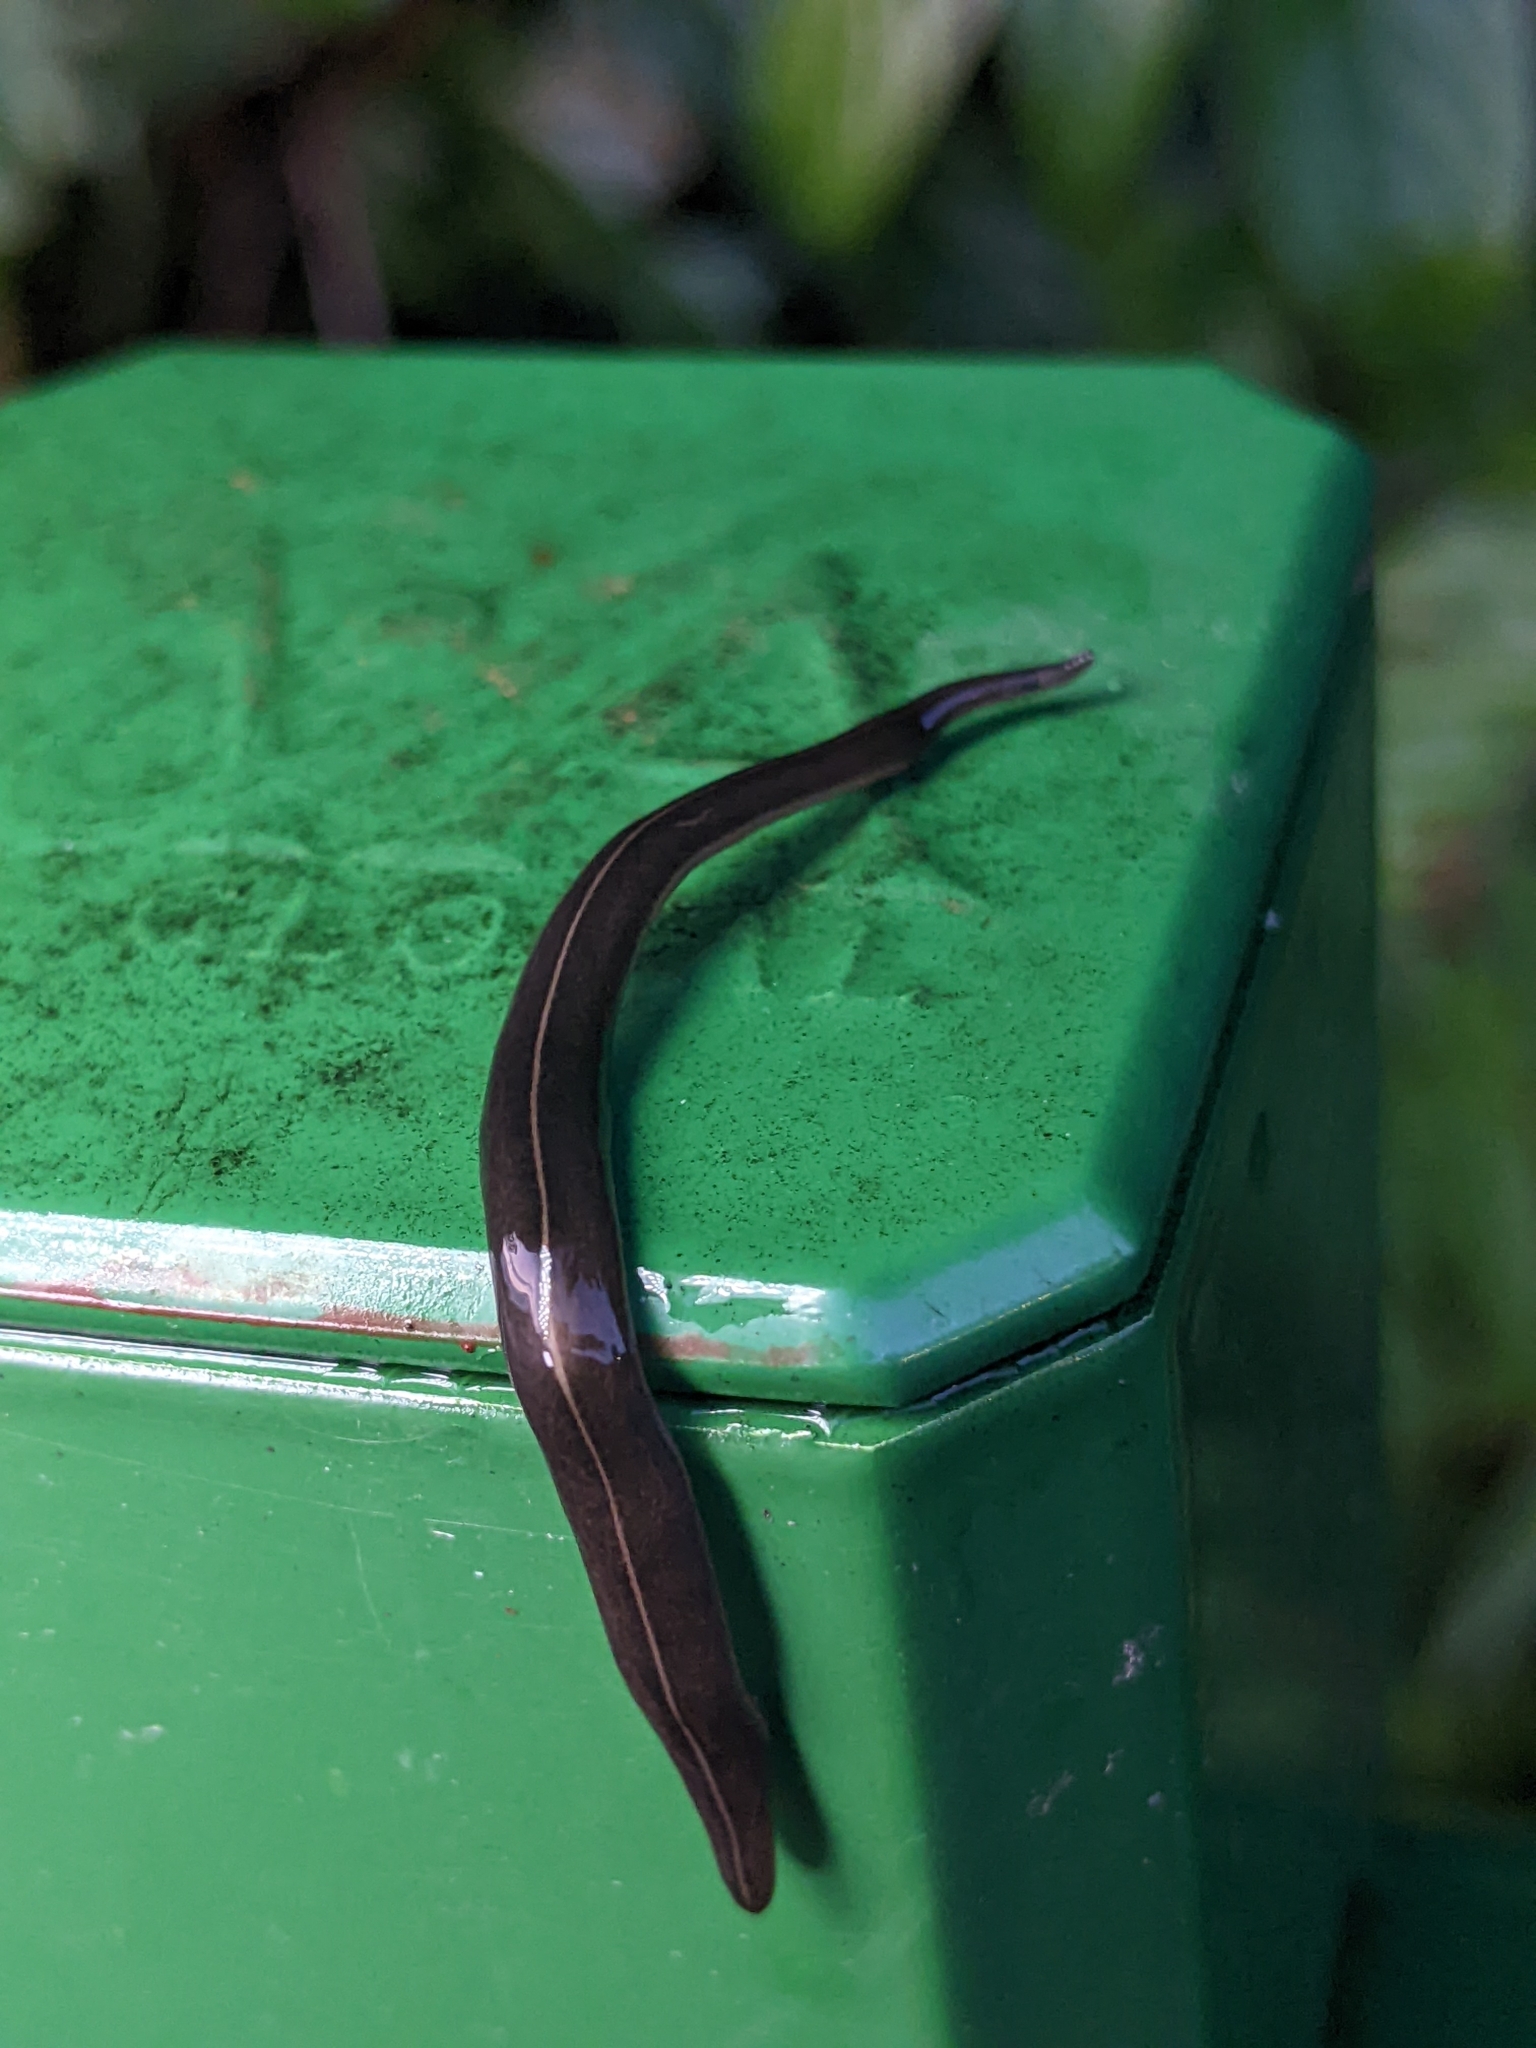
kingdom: Animalia
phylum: Platyhelminthes
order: Tricladida
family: Geoplanidae
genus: Platydemus
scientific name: Platydemus manokwari
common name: New guinea flatworm
